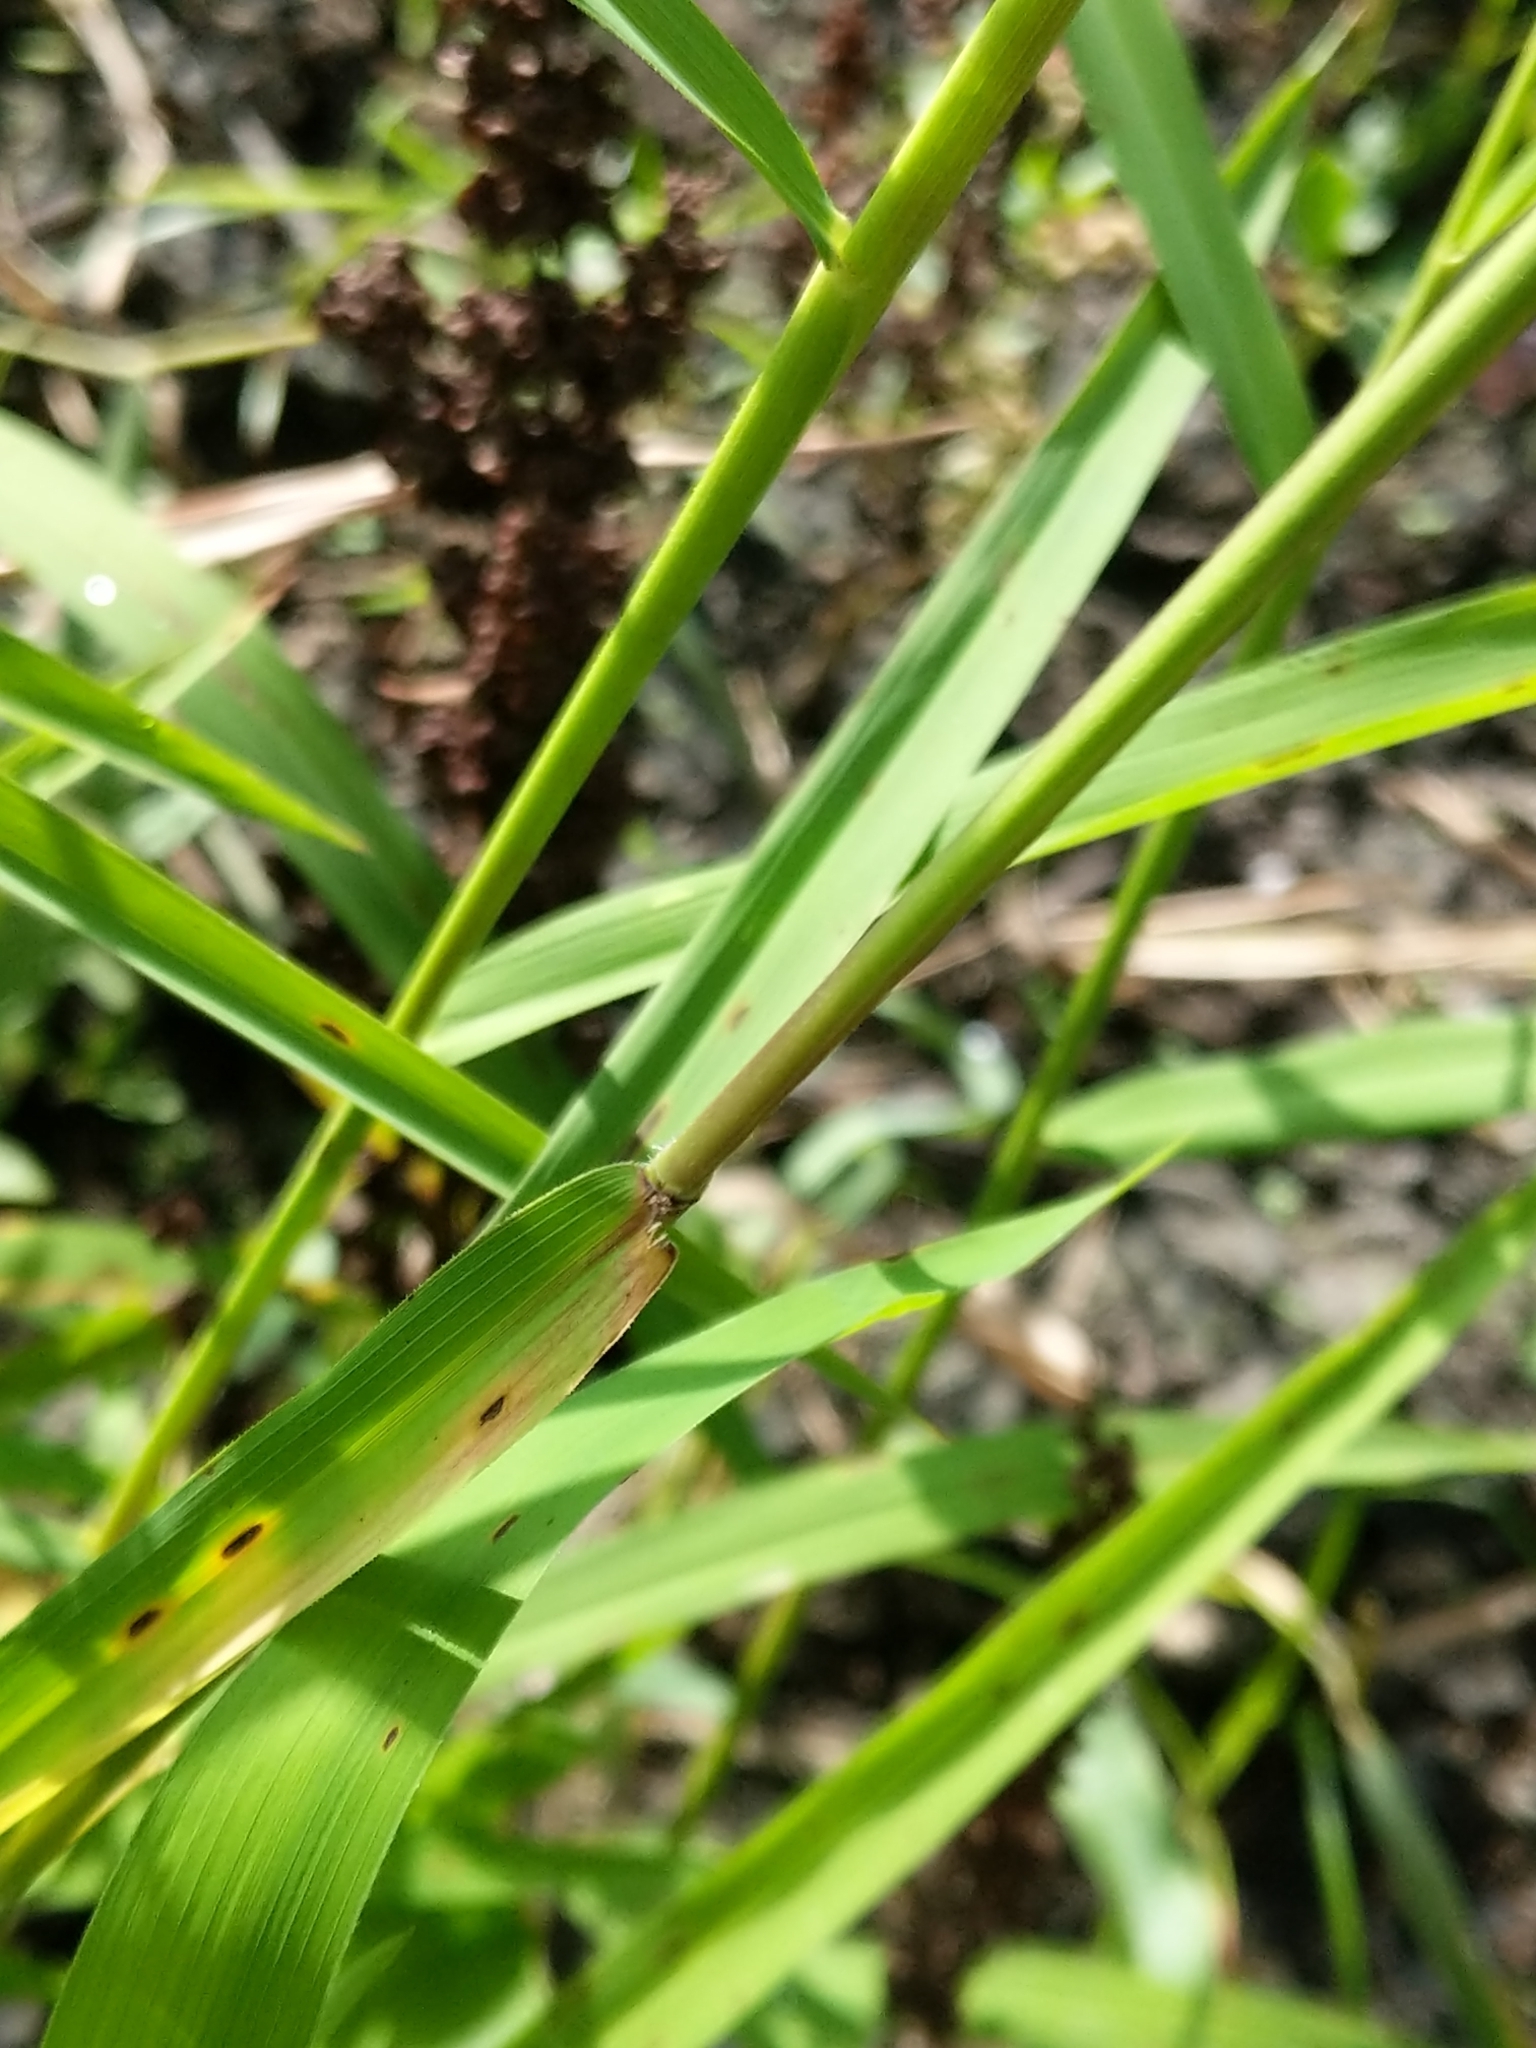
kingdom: Plantae
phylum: Tracheophyta
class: Liliopsida
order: Poales
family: Poaceae
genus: Leersia
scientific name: Leersia oryzoides
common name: Cut-grass
